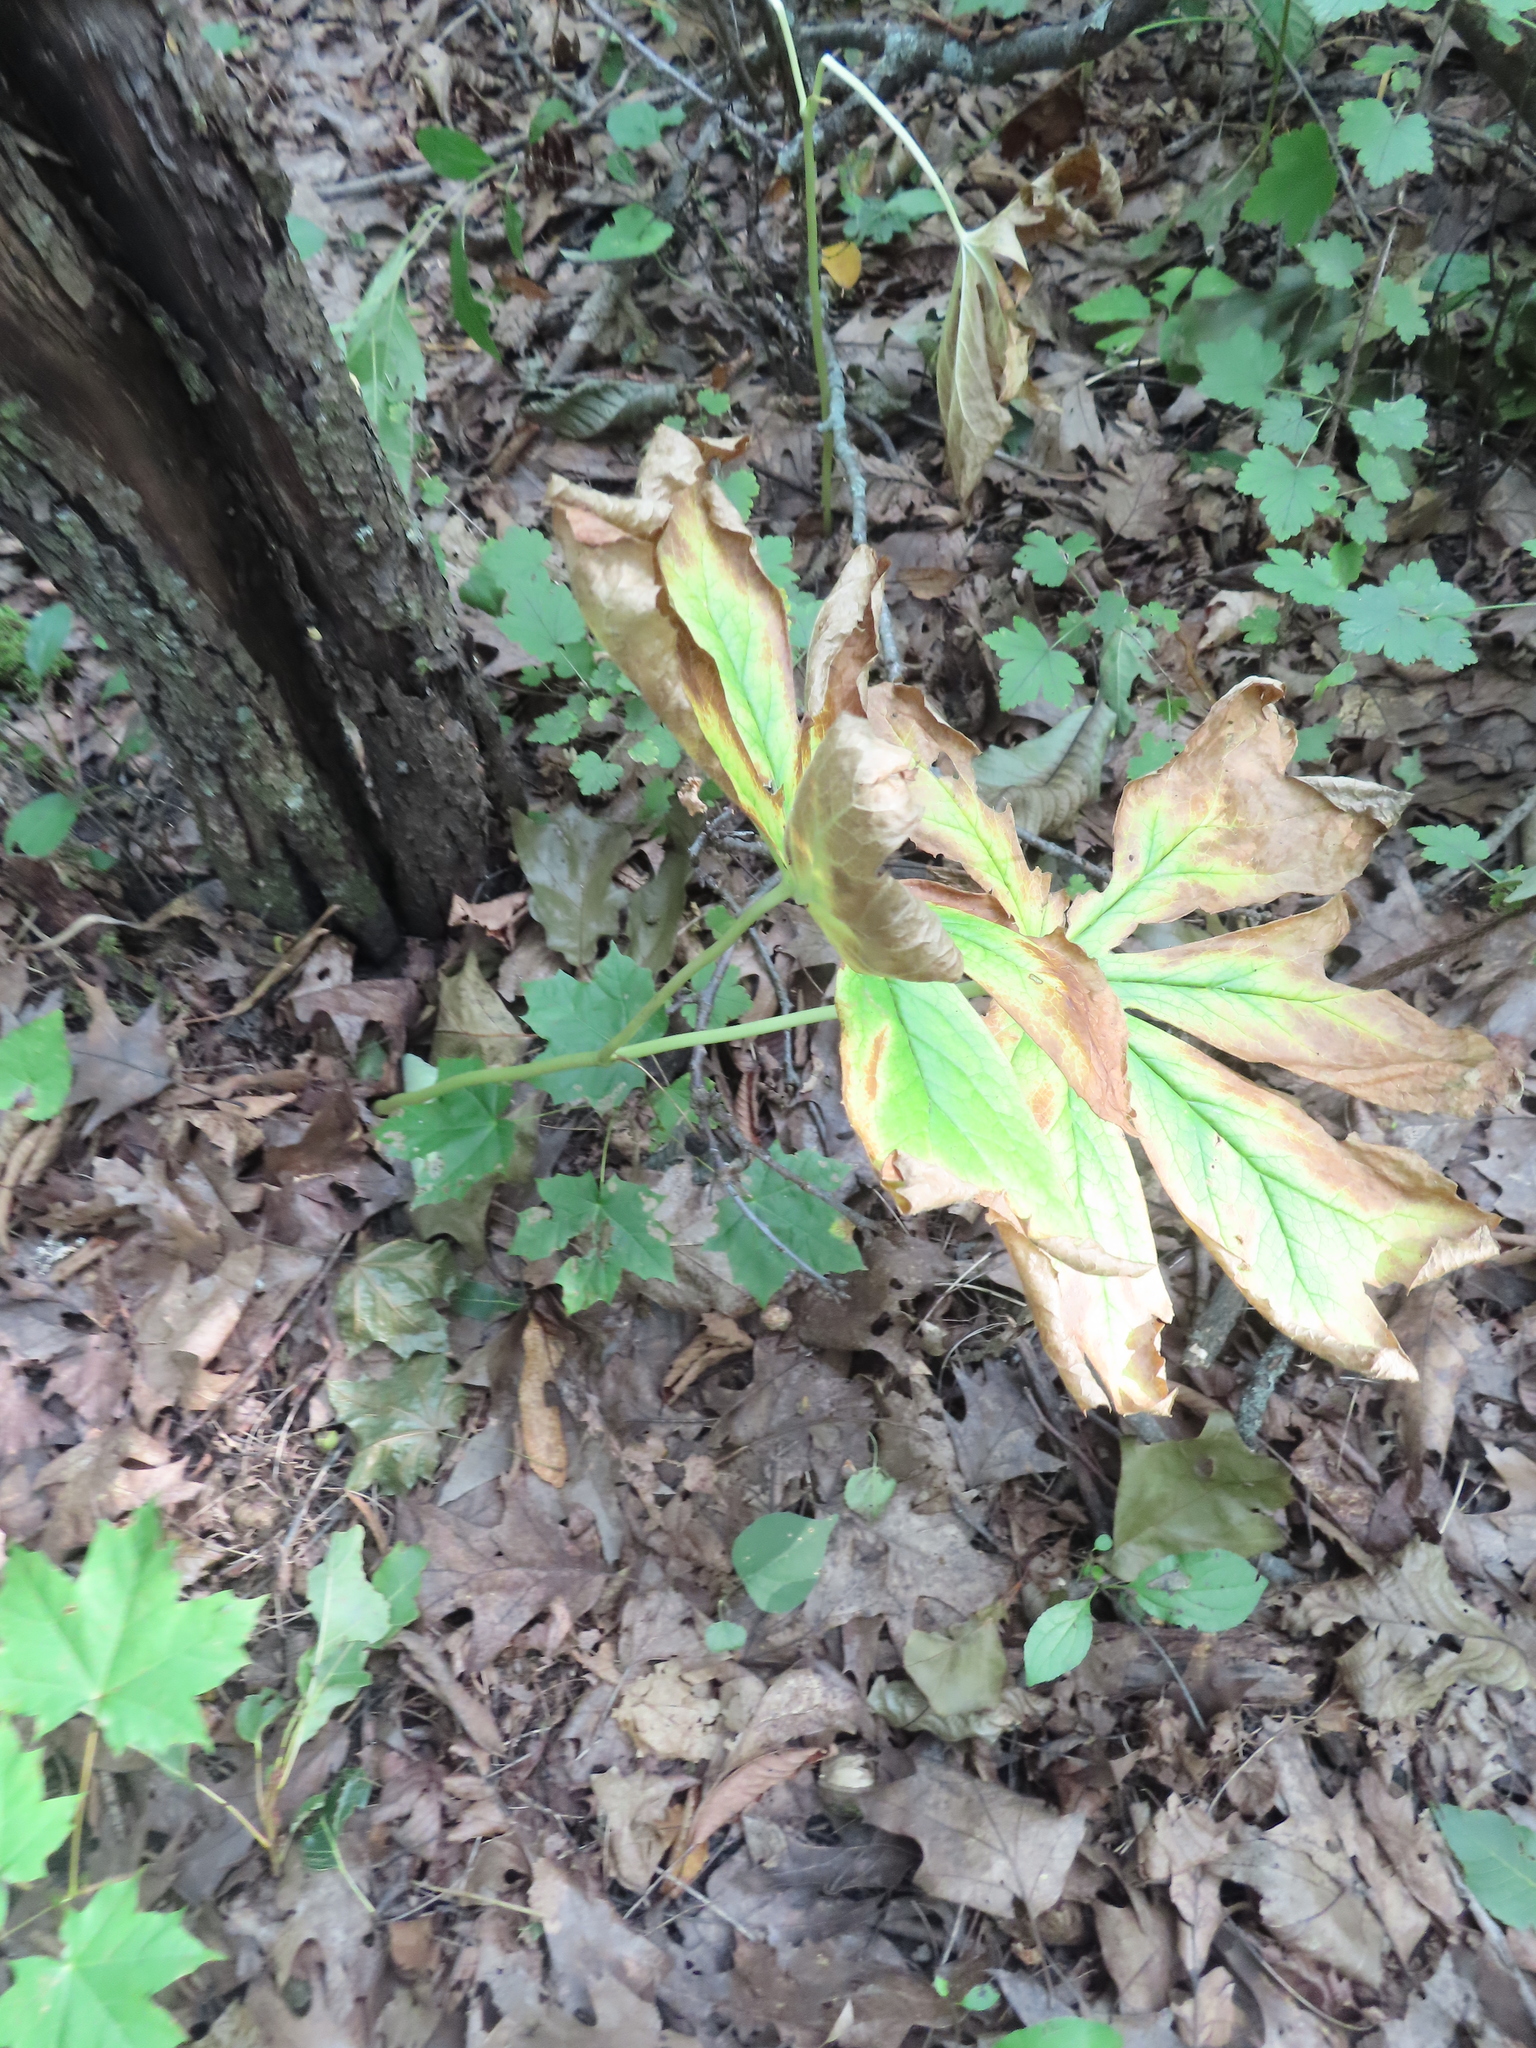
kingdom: Plantae
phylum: Tracheophyta
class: Magnoliopsida
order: Ranunculales
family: Berberidaceae
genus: Podophyllum
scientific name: Podophyllum peltatum
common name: Wild mandrake
